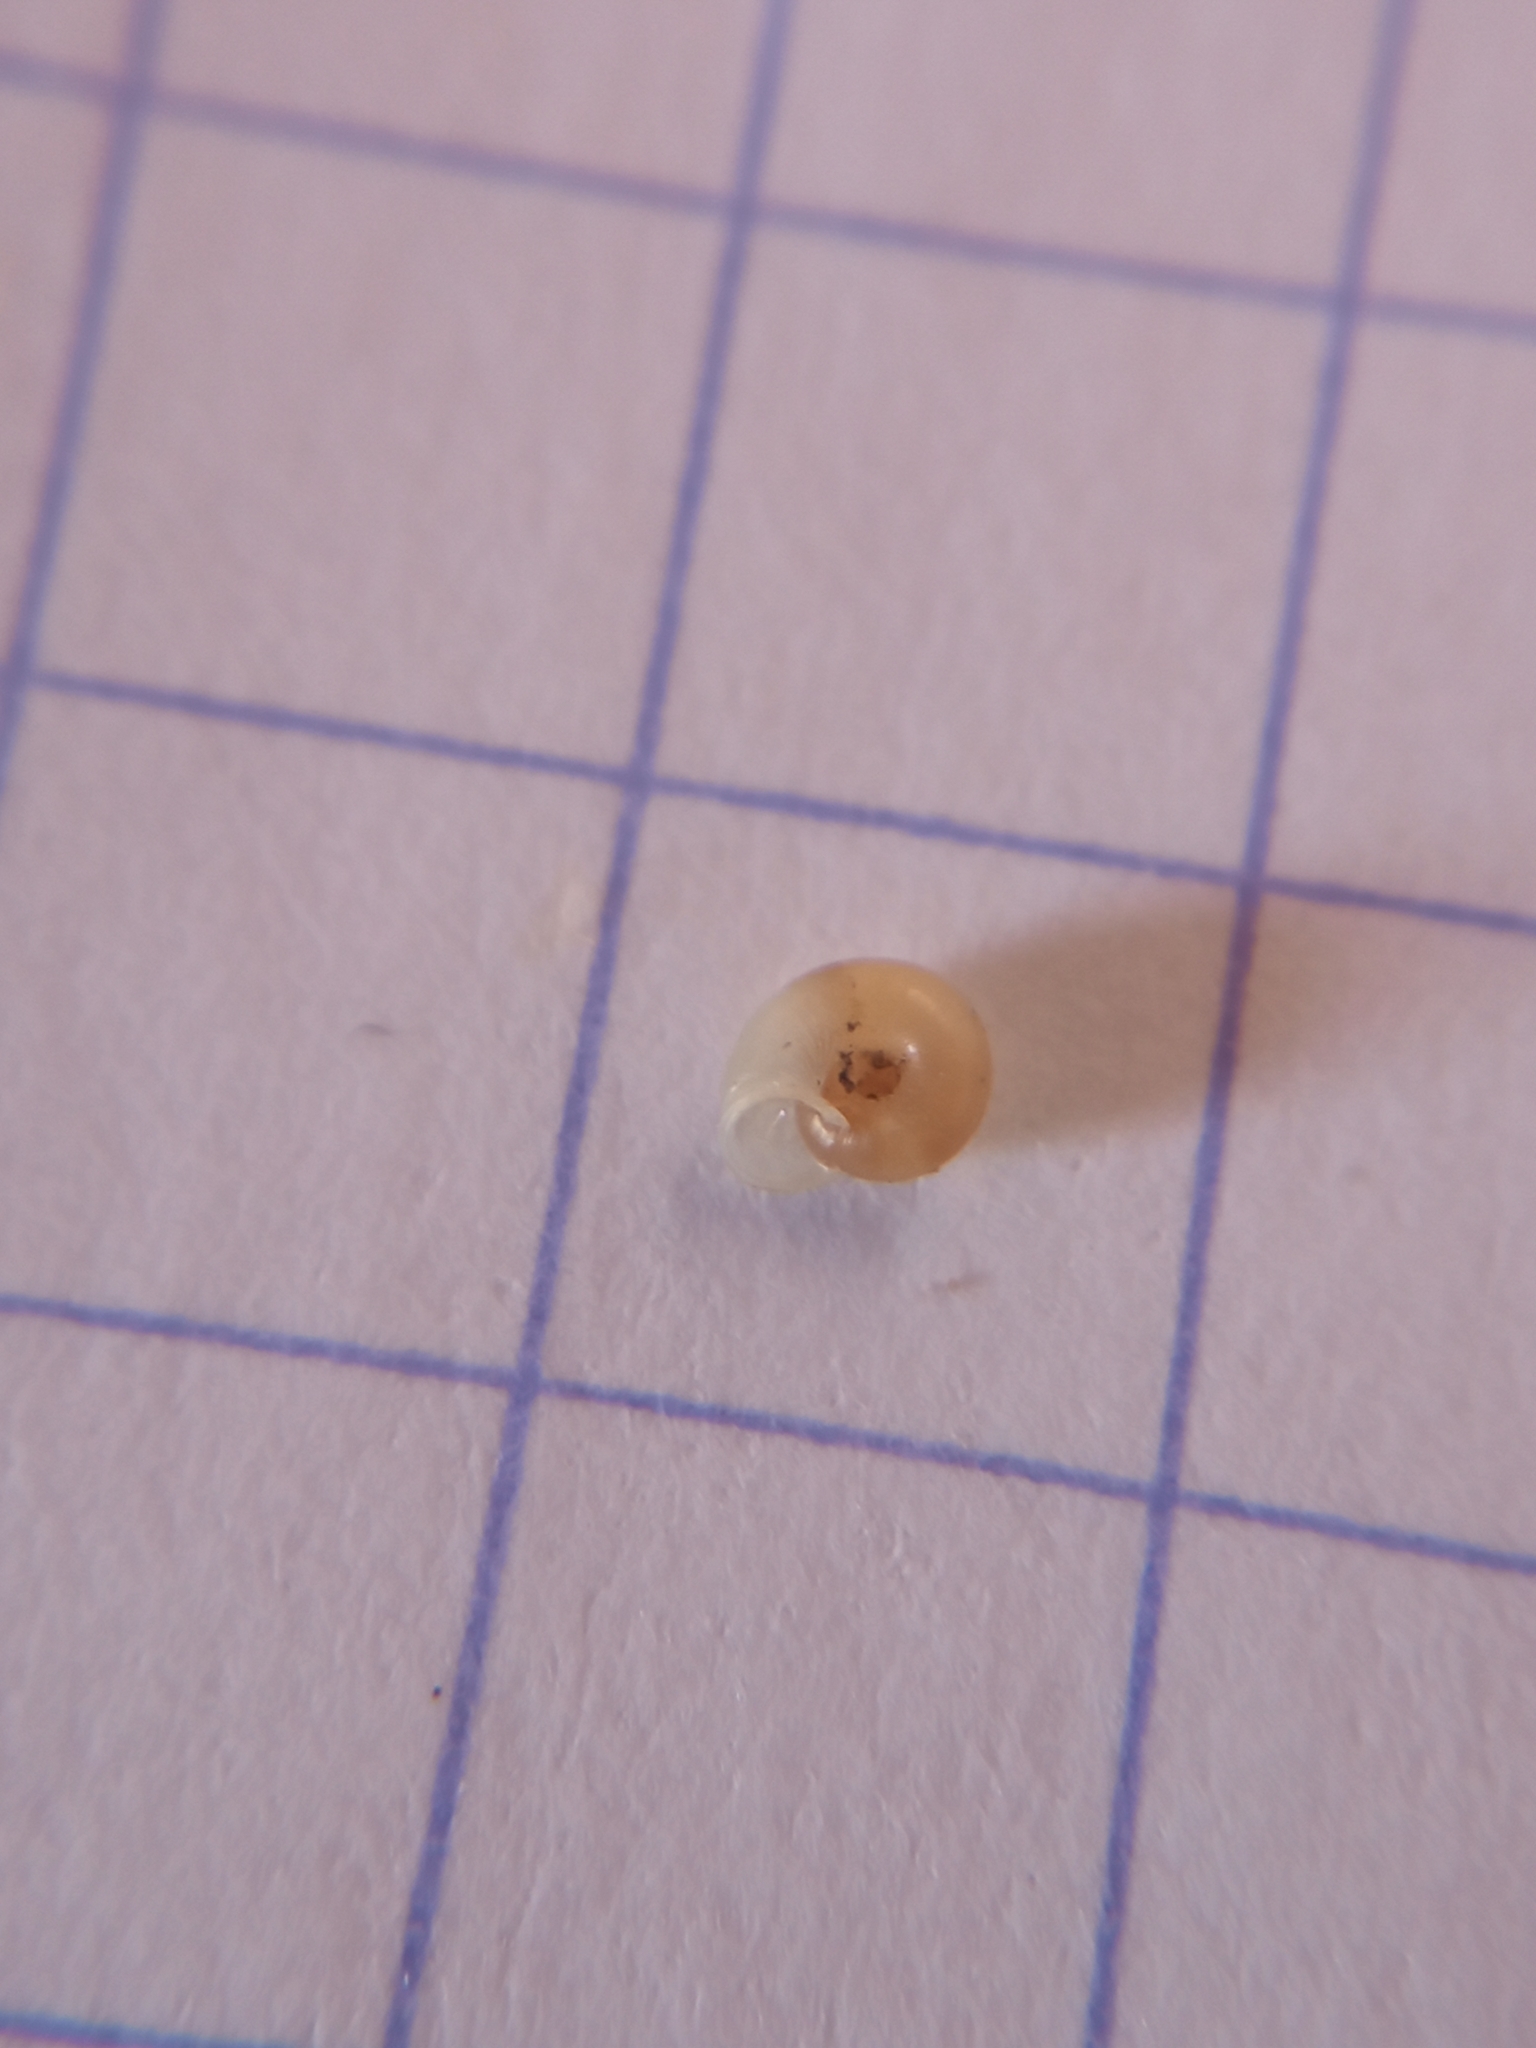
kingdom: Animalia
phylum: Mollusca
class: Gastropoda
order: Stylommatophora
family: Valloniidae
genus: Vallonia
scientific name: Vallonia pulchella
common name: Smooth grass snail
